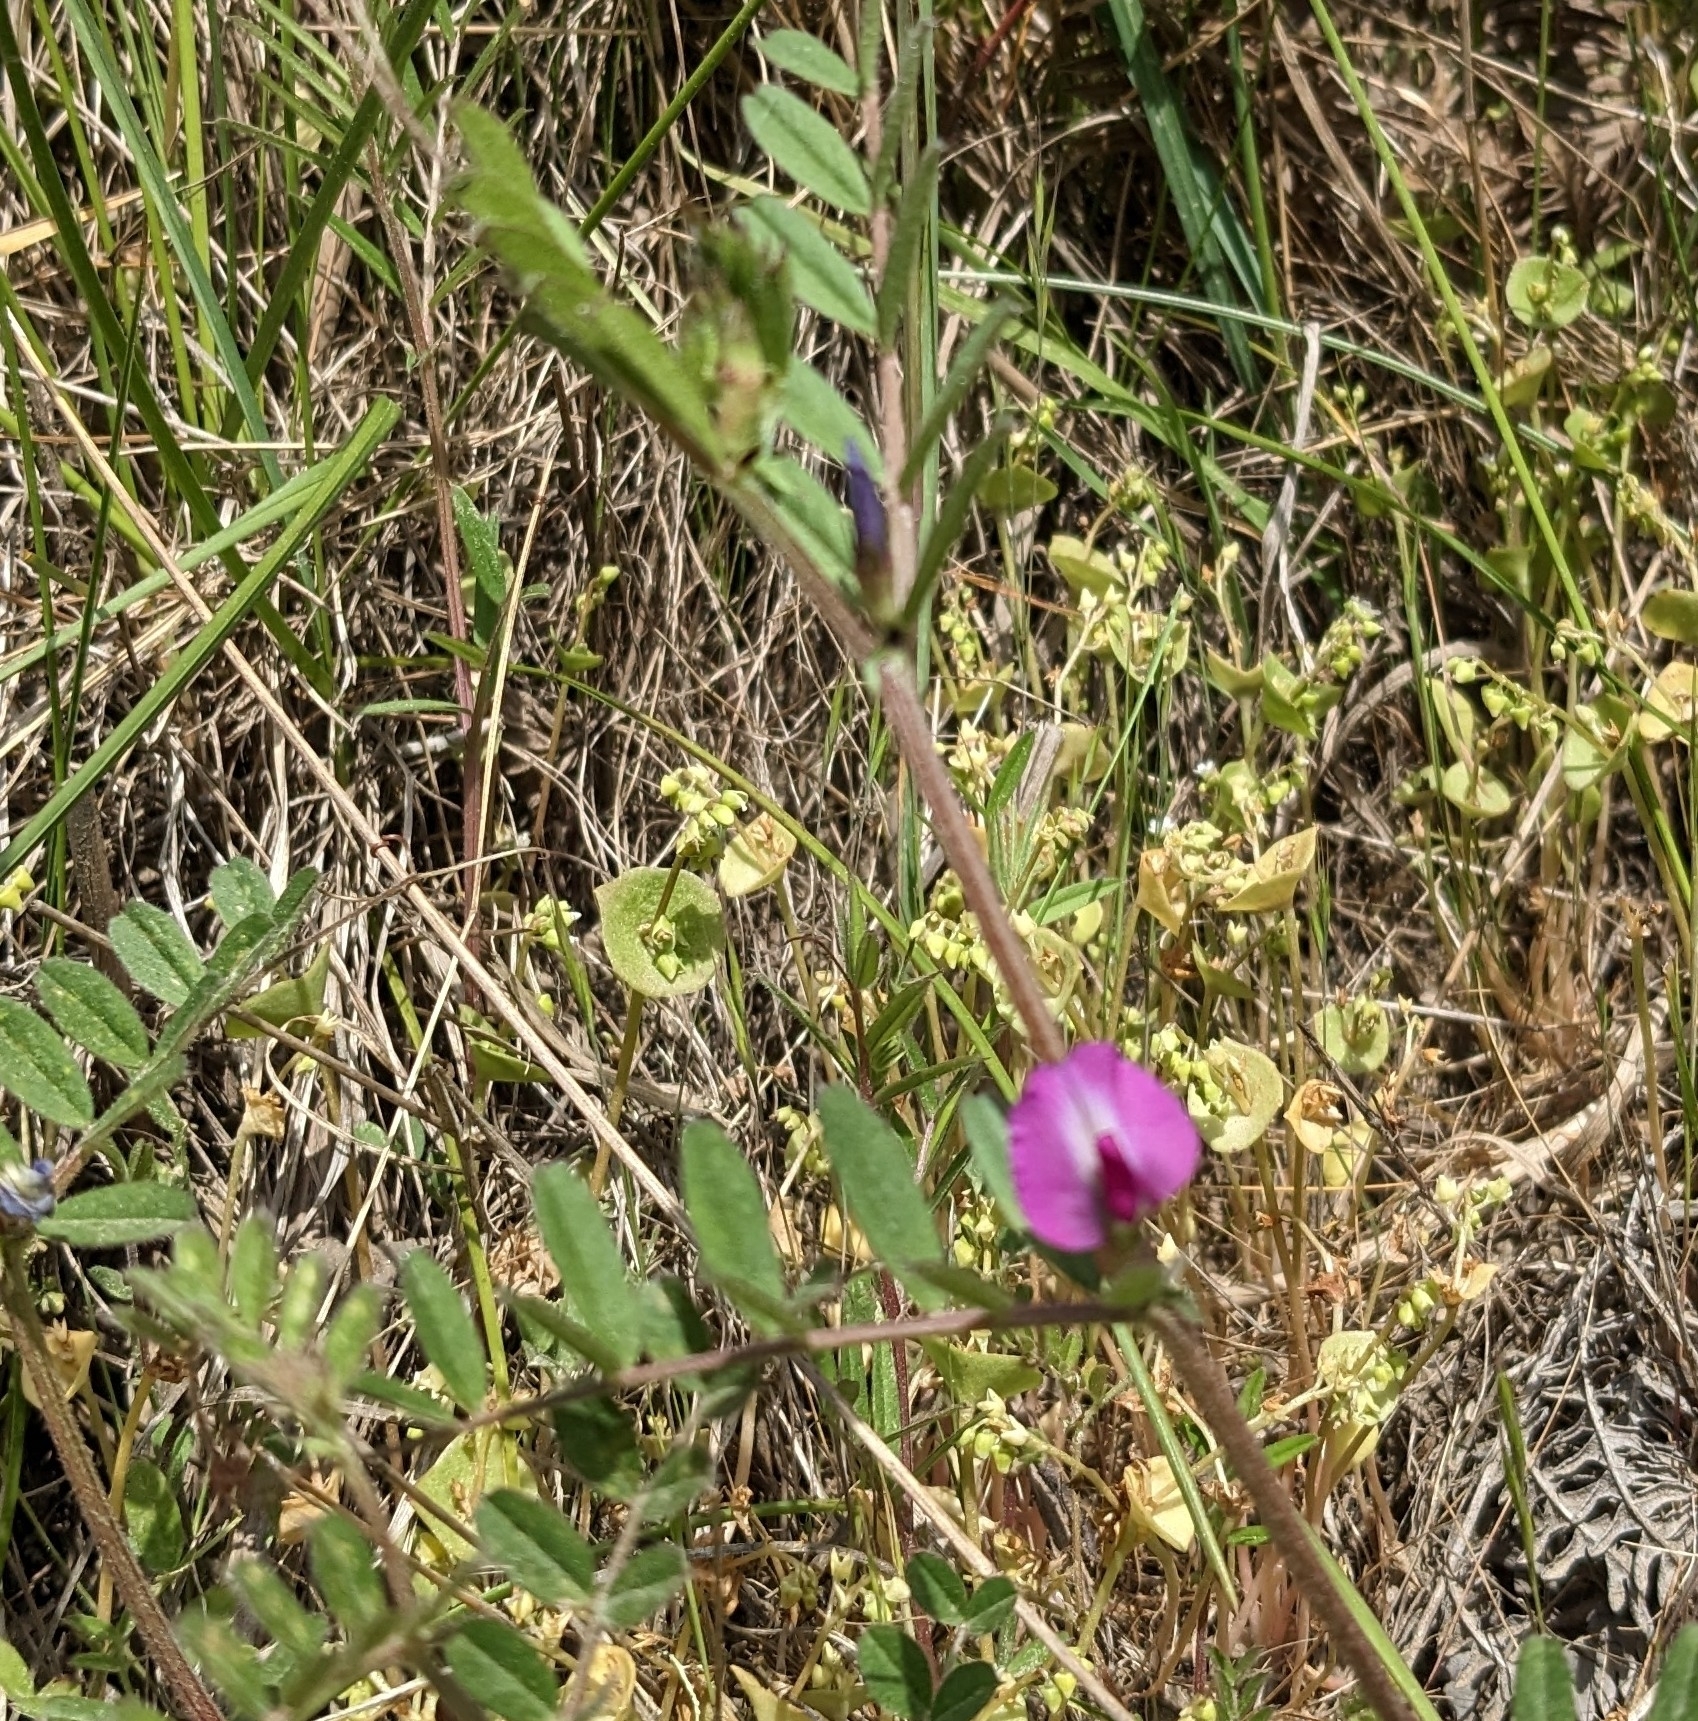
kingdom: Plantae
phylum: Tracheophyta
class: Magnoliopsida
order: Fabales
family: Fabaceae
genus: Vicia
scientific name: Vicia sativa
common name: Garden vetch
